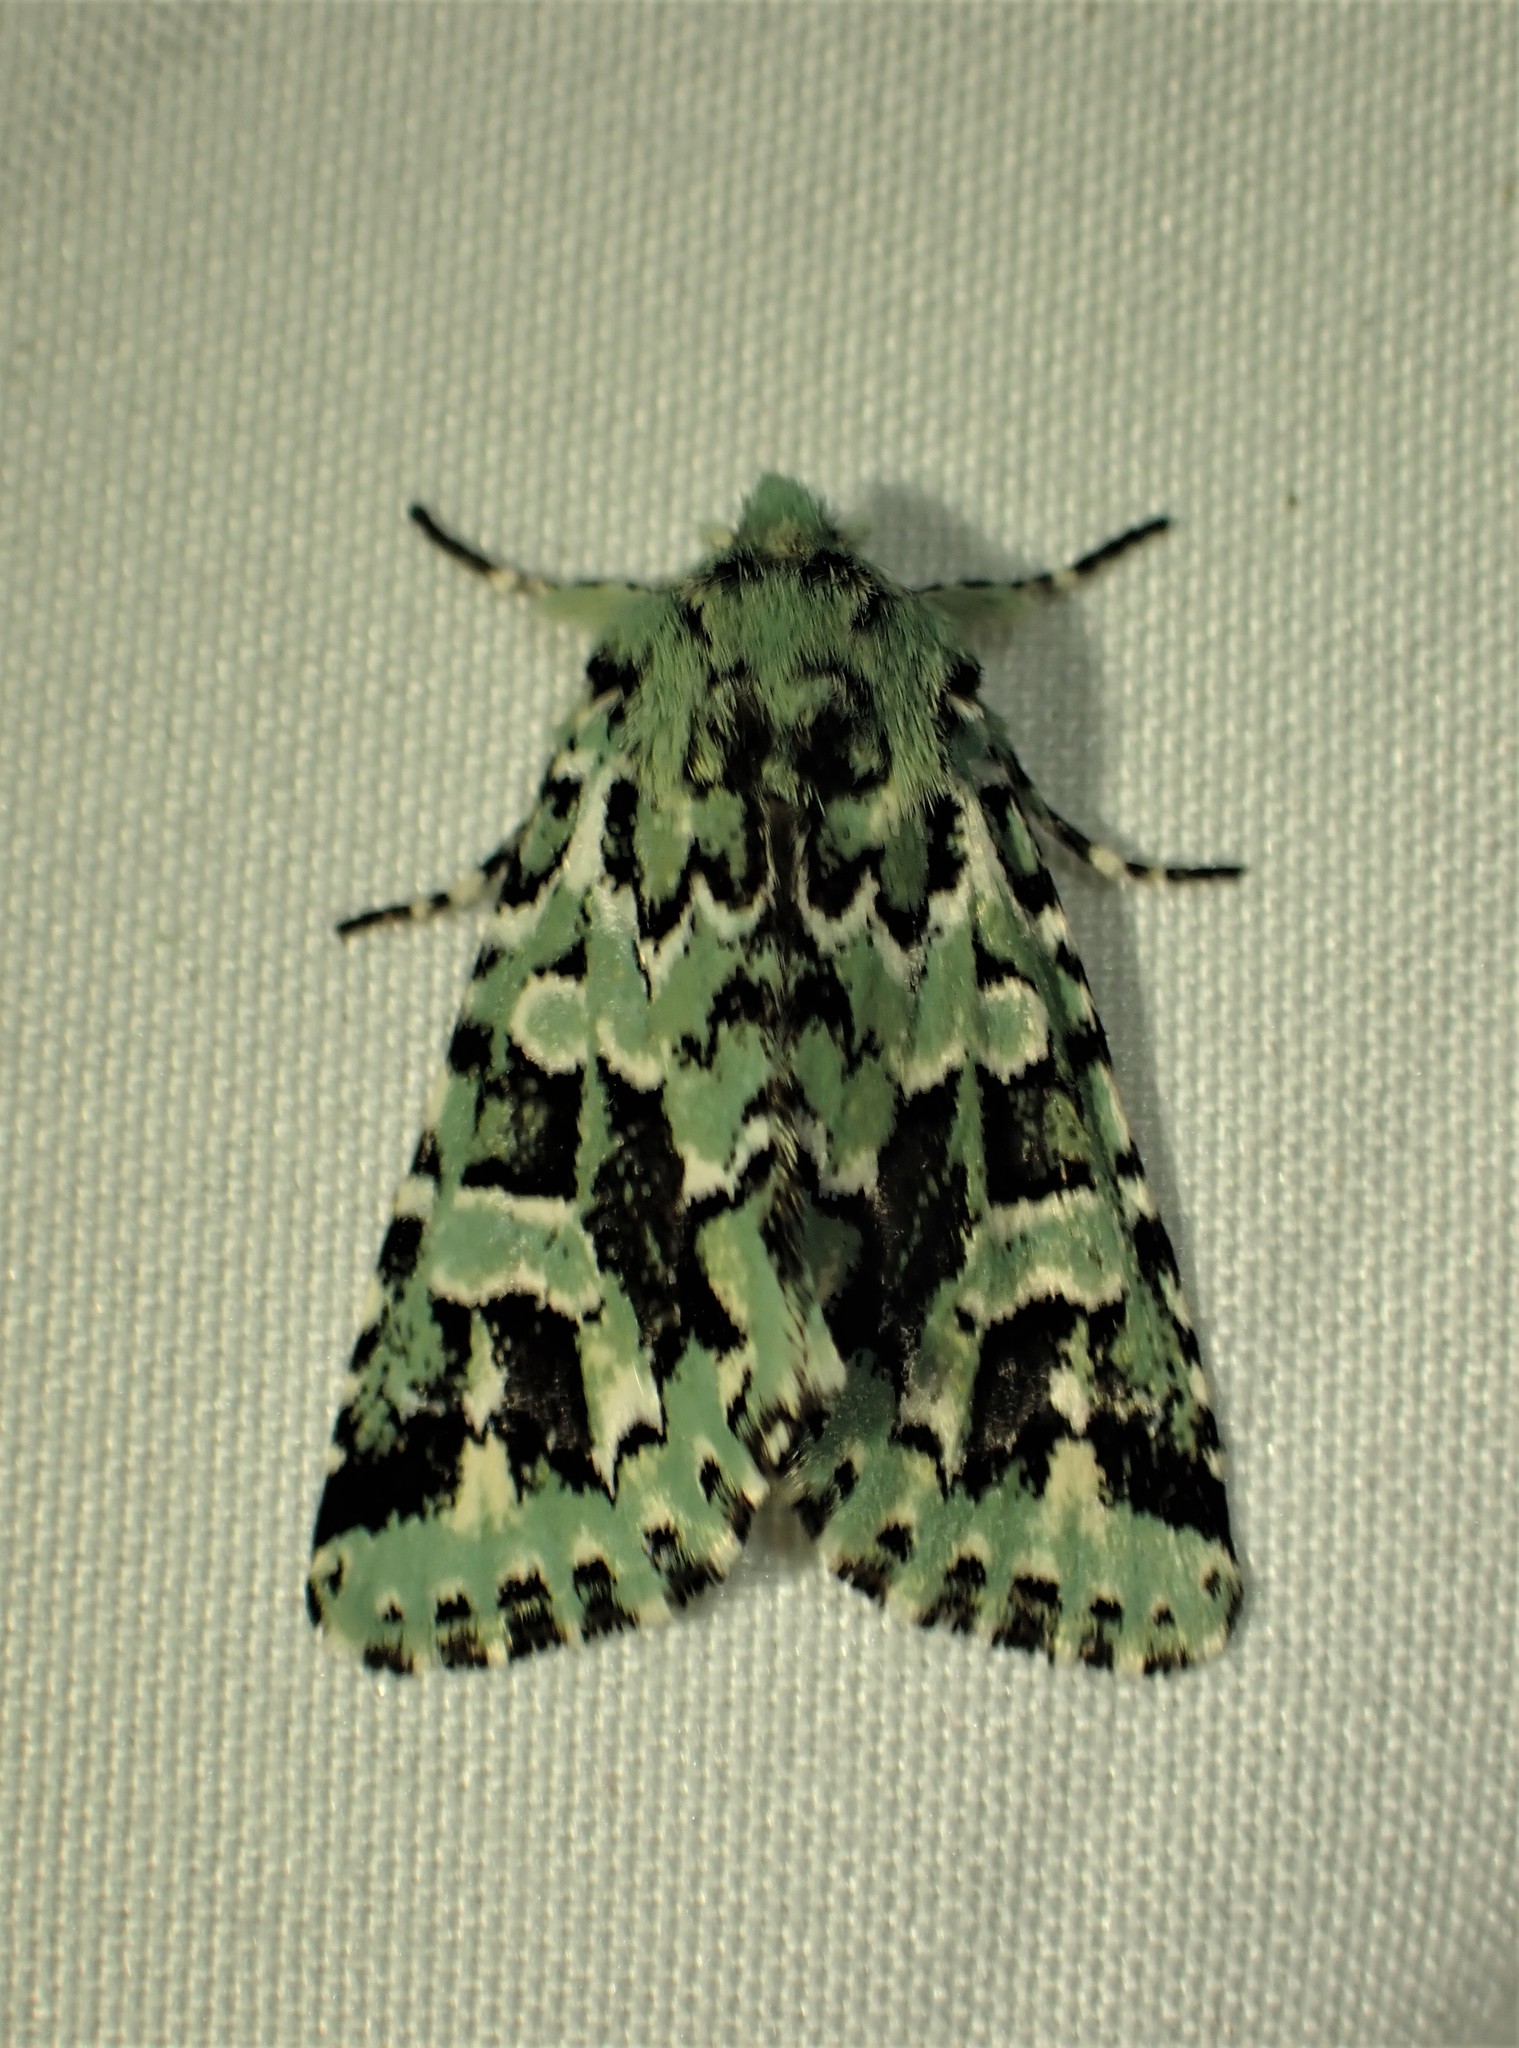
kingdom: Animalia
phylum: Arthropoda
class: Insecta
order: Lepidoptera
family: Noctuidae
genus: Feralia
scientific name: Feralia comstocki
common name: Comstock's sallow
